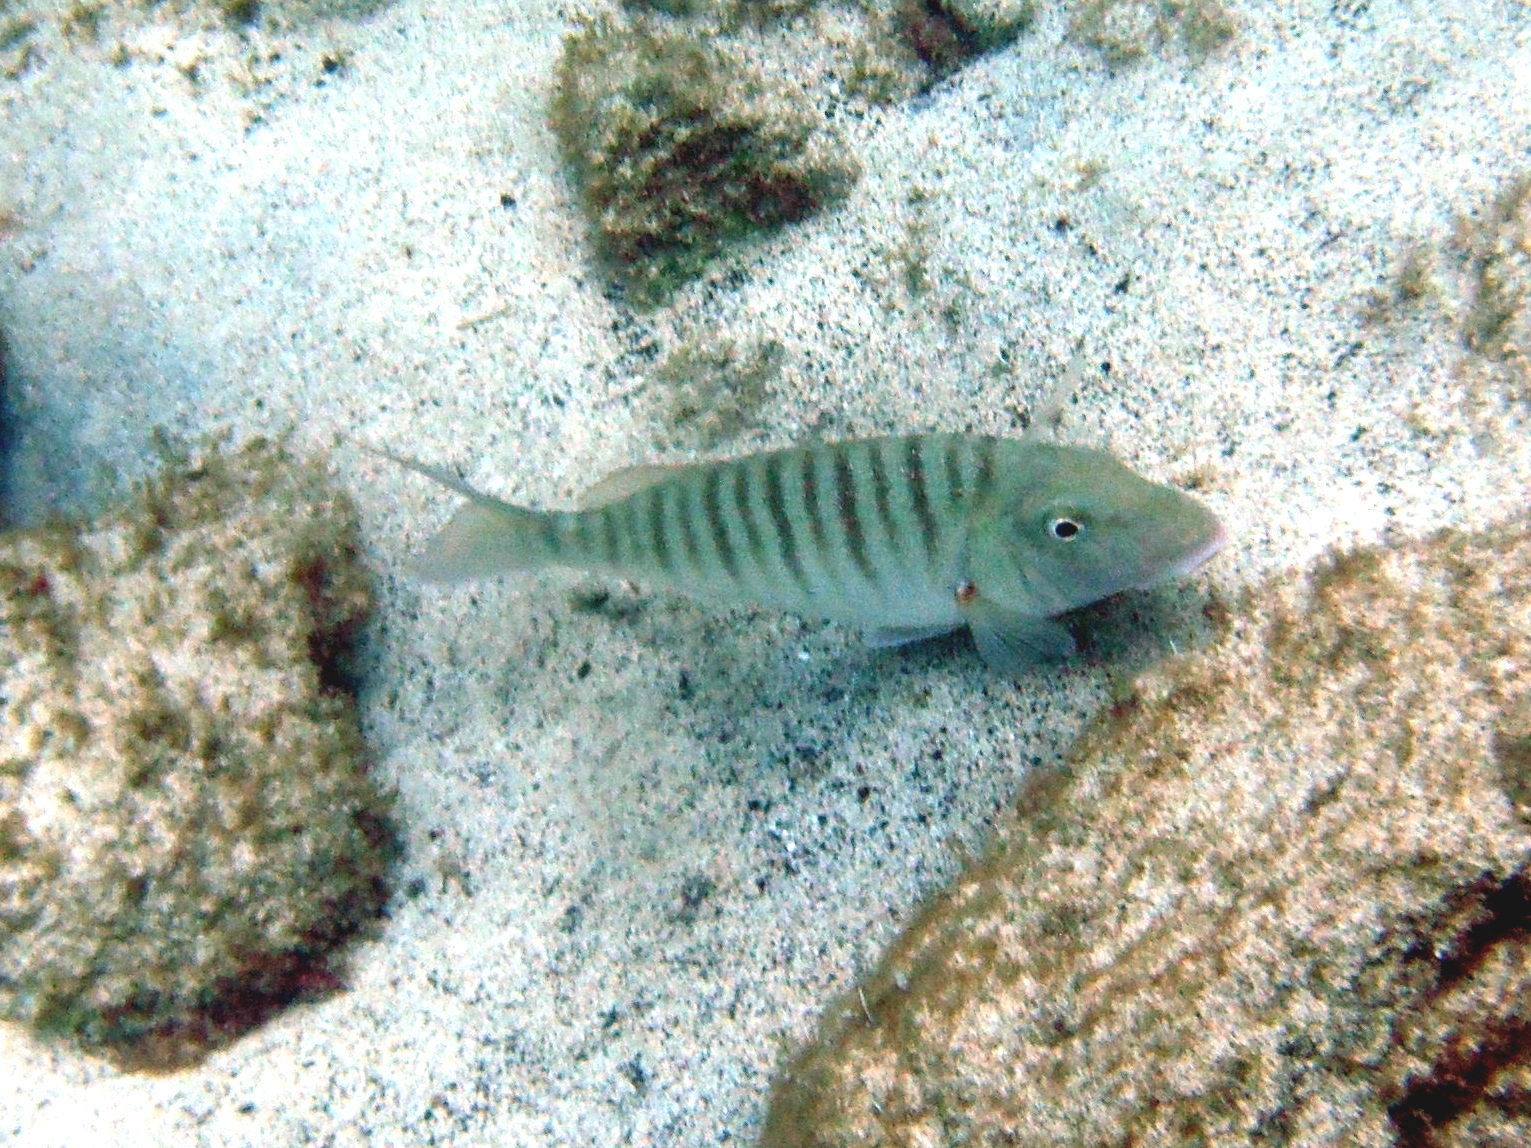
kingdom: Animalia
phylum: Chordata
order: Perciformes
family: Sparidae
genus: Lithognathus
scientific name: Lithognathus mormyrus
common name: Sand steenbras
